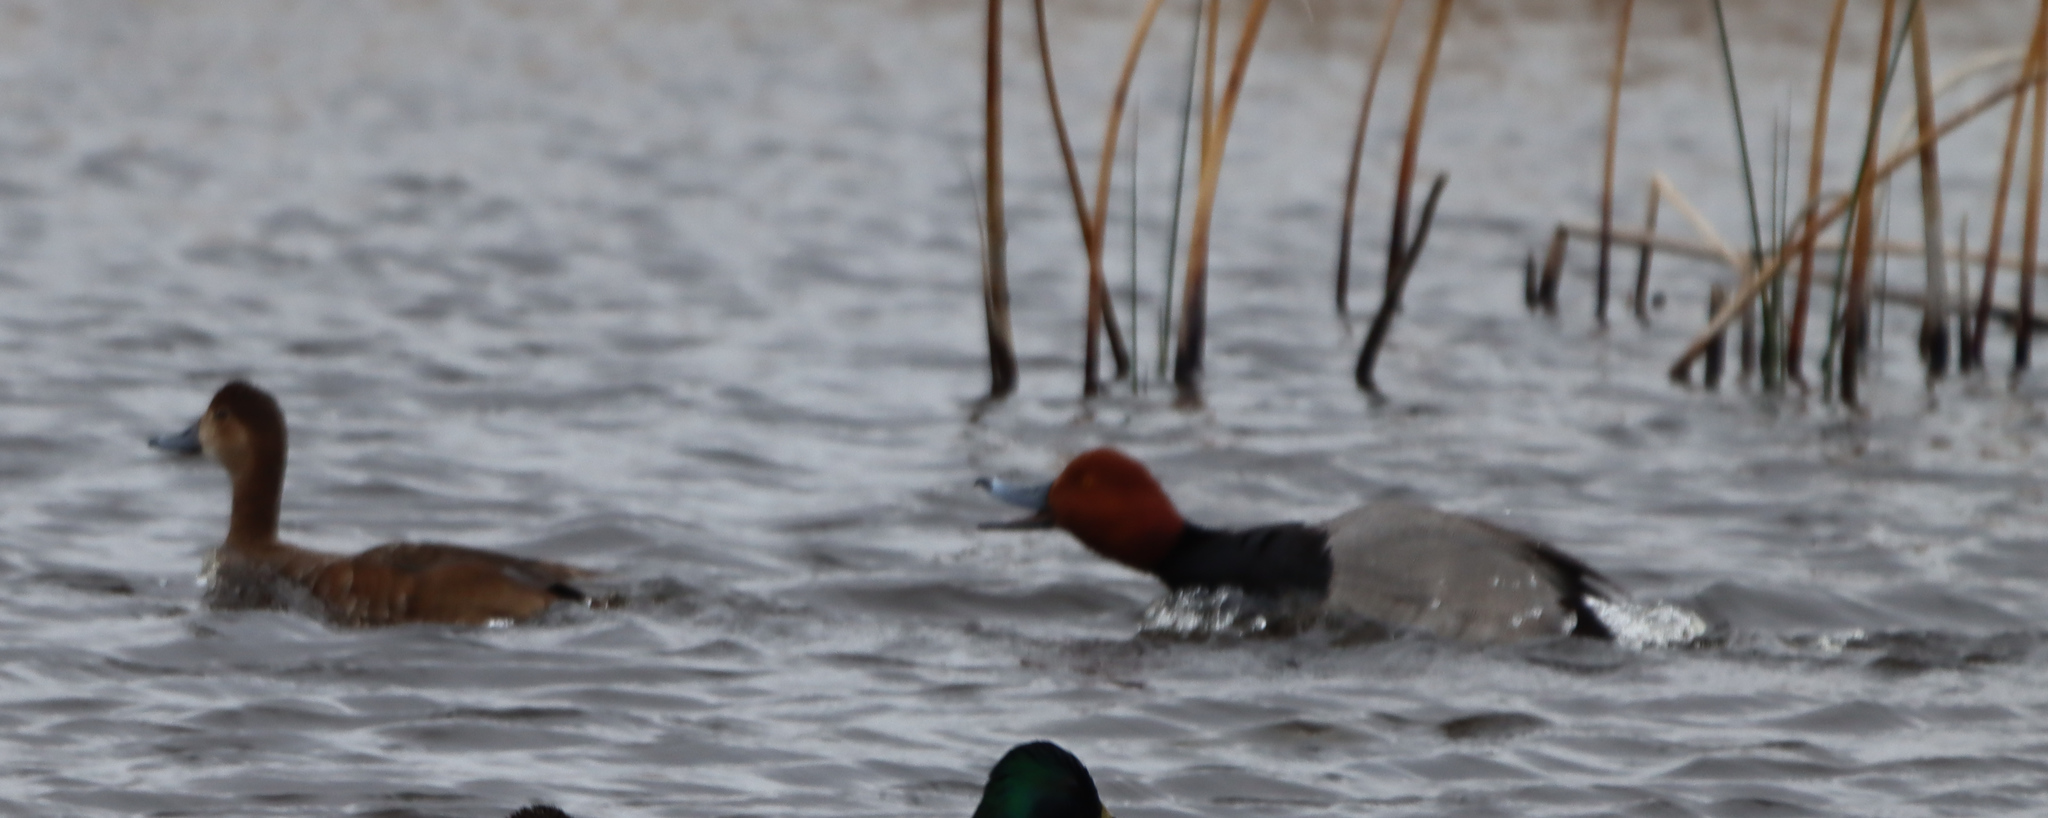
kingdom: Animalia
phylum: Chordata
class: Aves
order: Anseriformes
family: Anatidae
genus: Aythya
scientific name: Aythya americana
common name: Redhead
